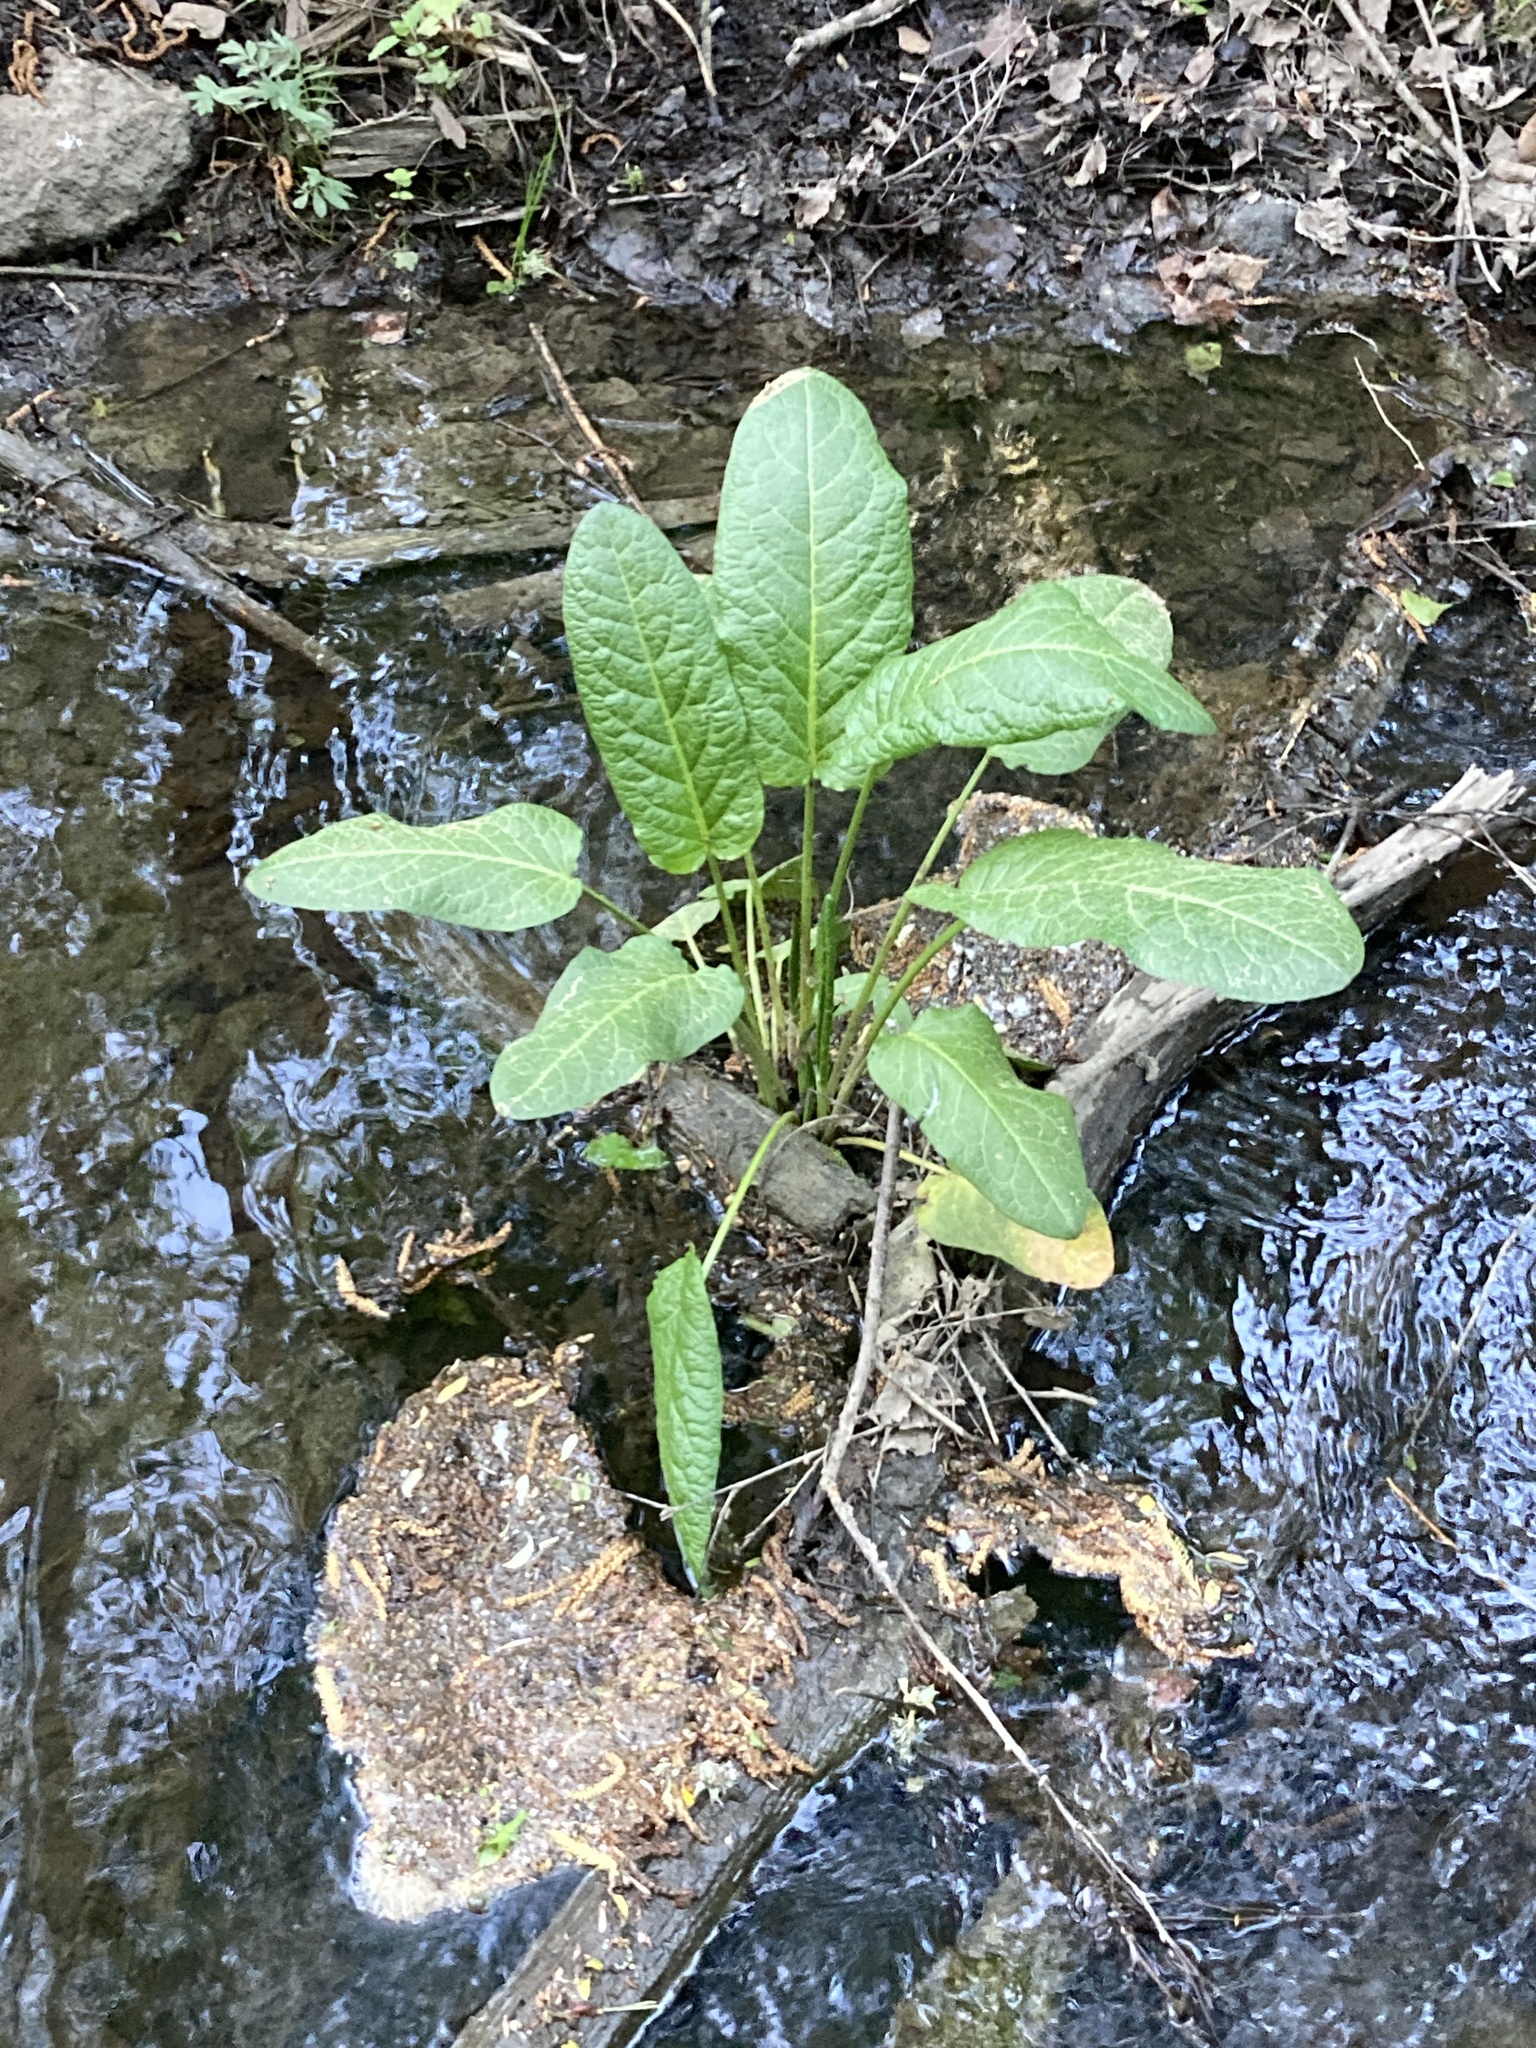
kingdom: Plantae
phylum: Tracheophyta
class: Magnoliopsida
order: Caryophyllales
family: Polygonaceae
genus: Rumex
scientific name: Rumex obtusifolius
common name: Bitter dock
